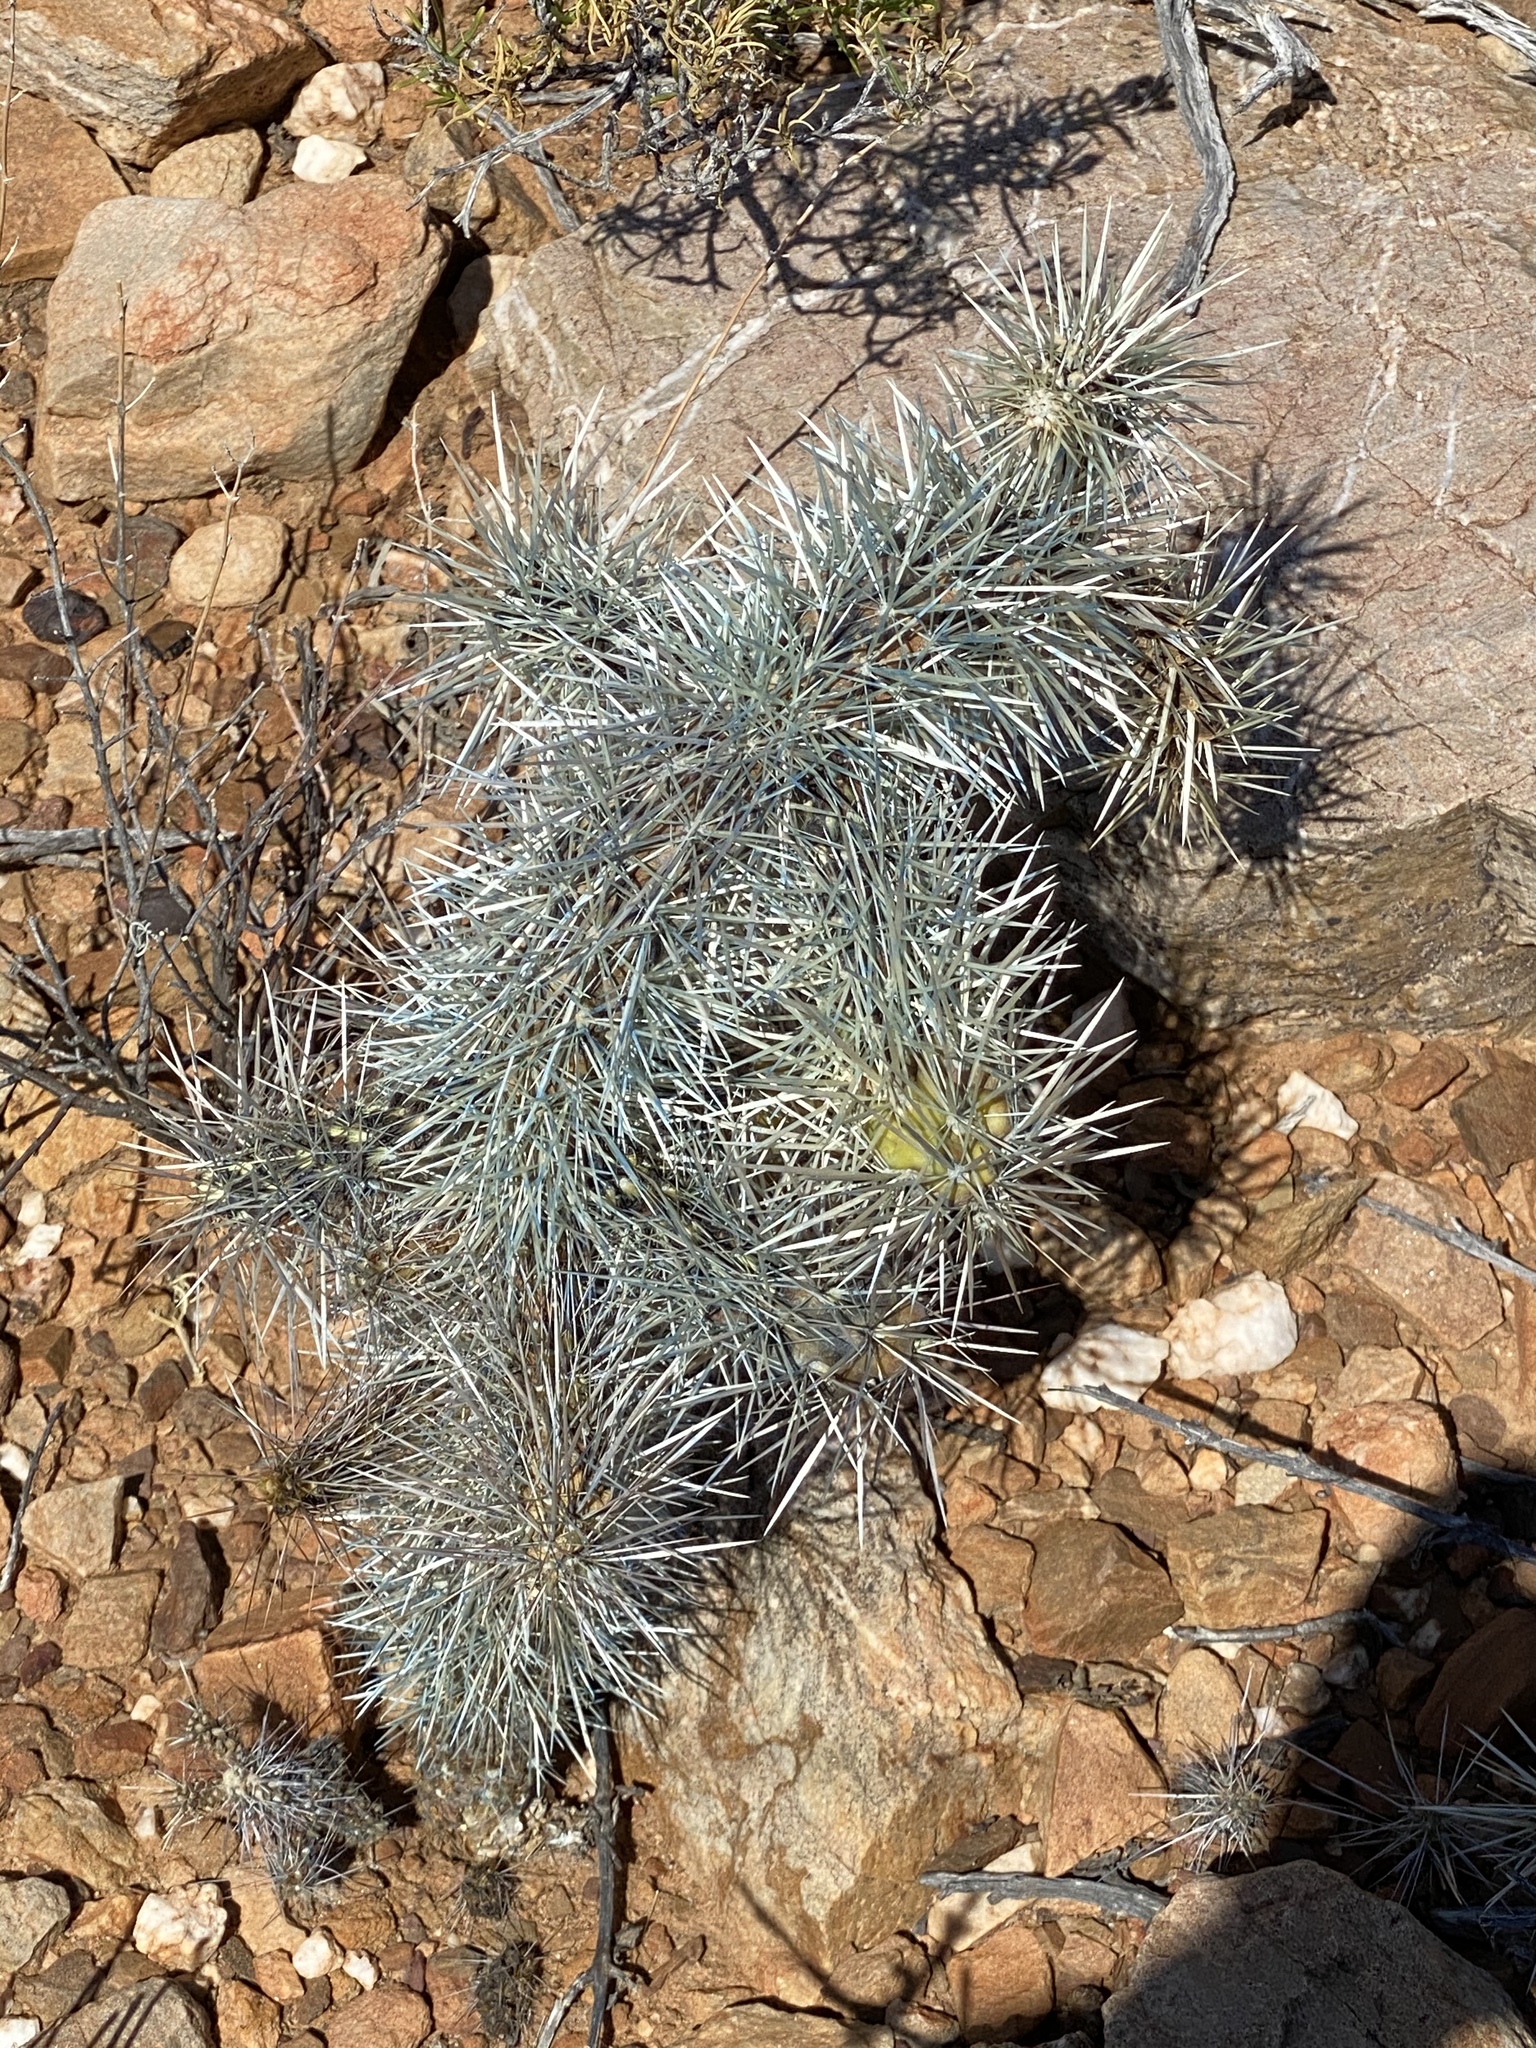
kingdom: Plantae
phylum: Tracheophyta
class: Magnoliopsida
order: Caryophyllales
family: Cactaceae
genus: Cylindropuntia
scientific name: Cylindropuntia imbricata
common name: Candelabrum cactus
